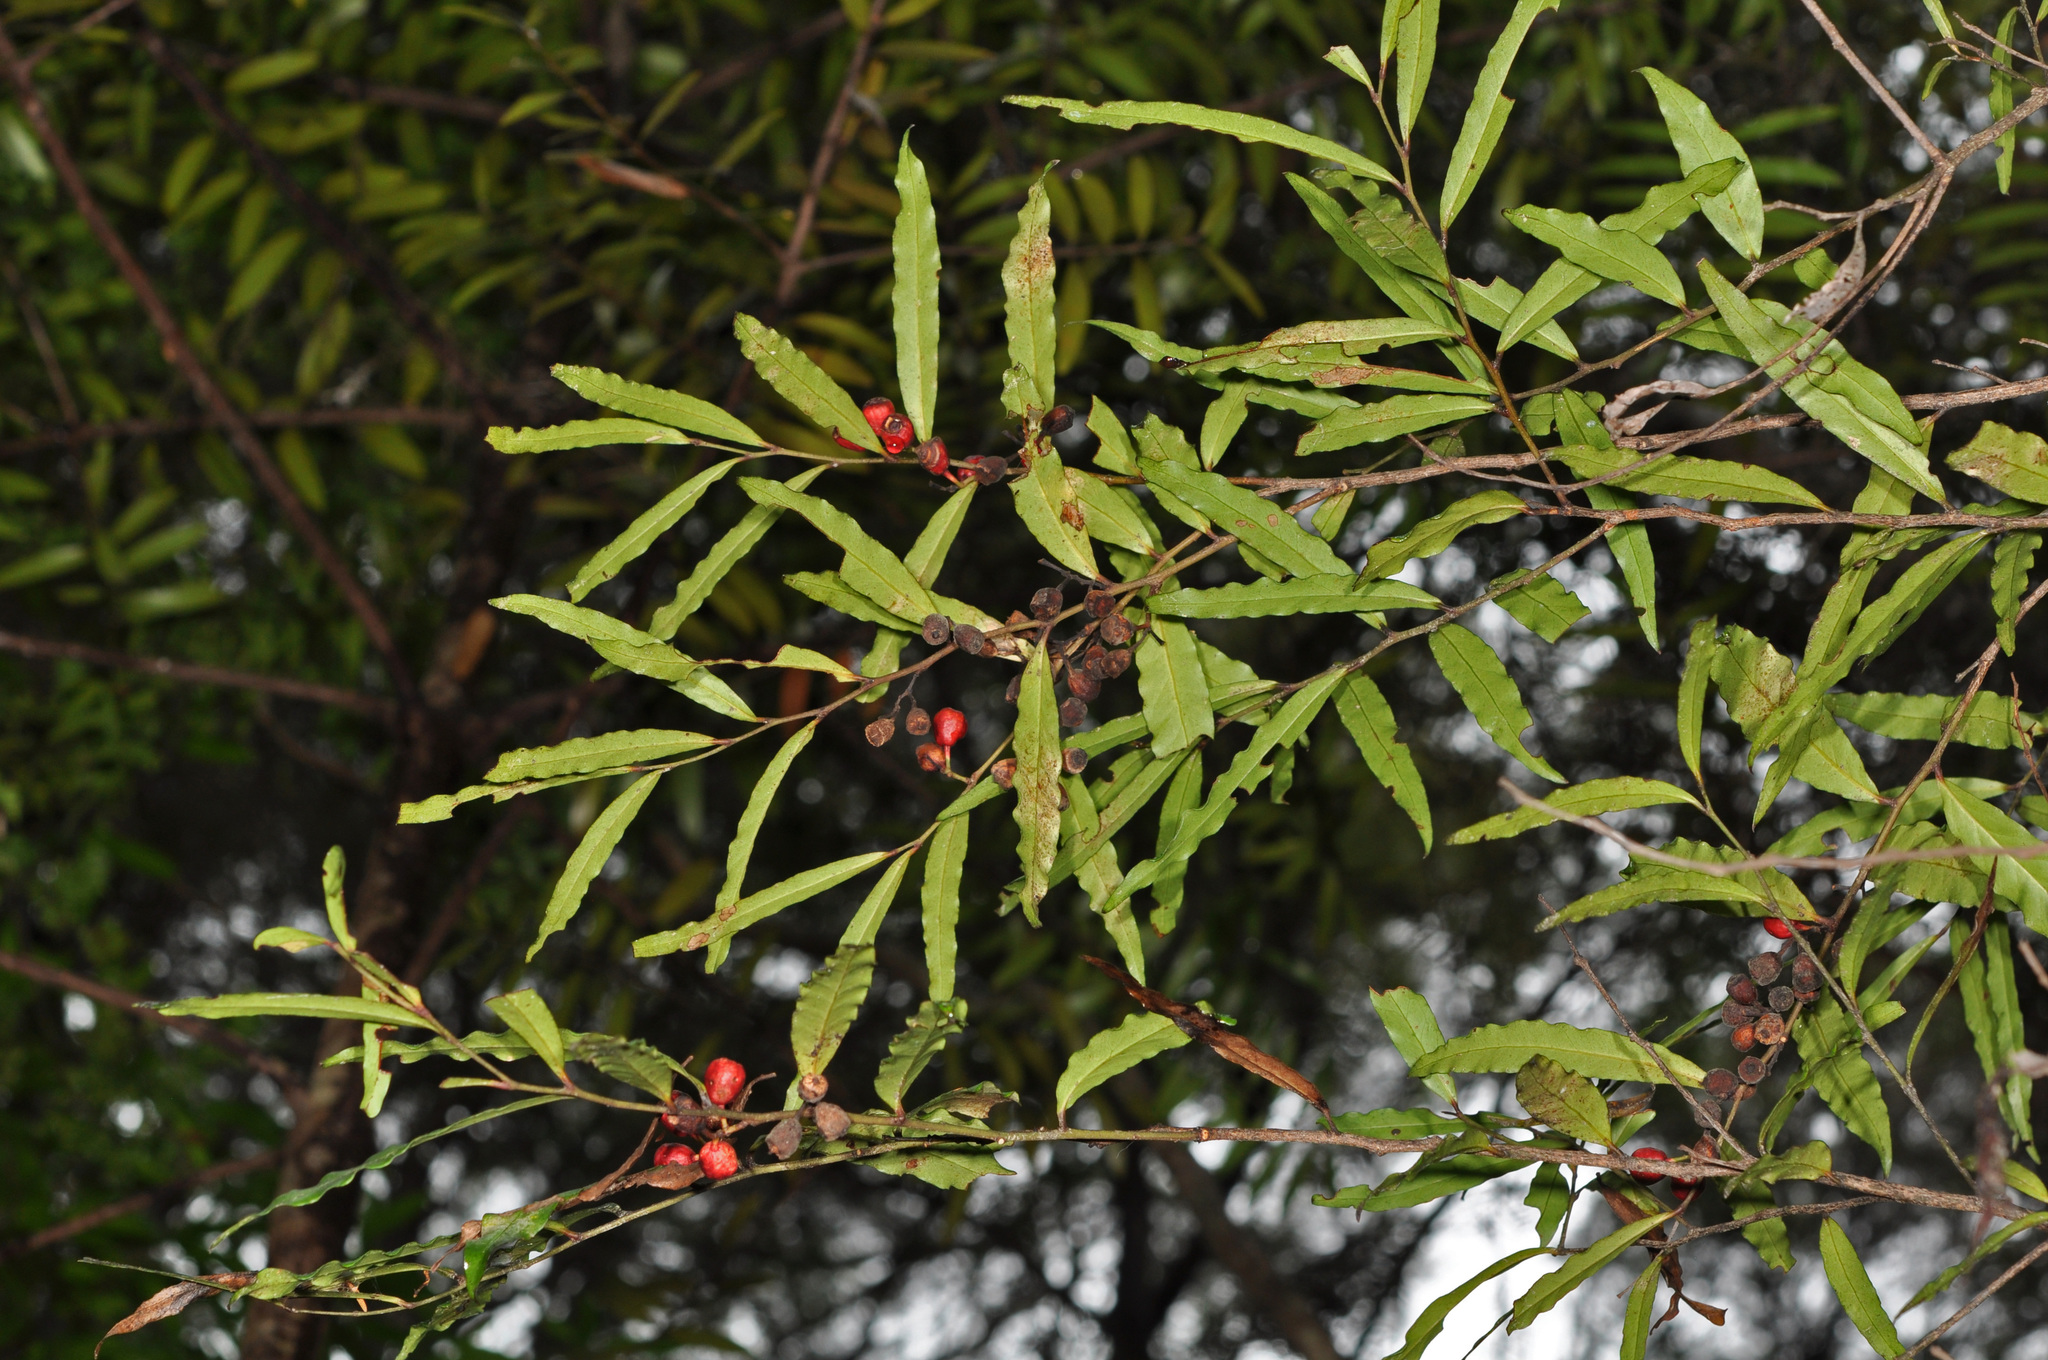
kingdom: Plantae
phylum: Tracheophyta
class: Magnoliopsida
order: Santalales
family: Nanodeaceae
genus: Mida
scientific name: Mida salicifolia
